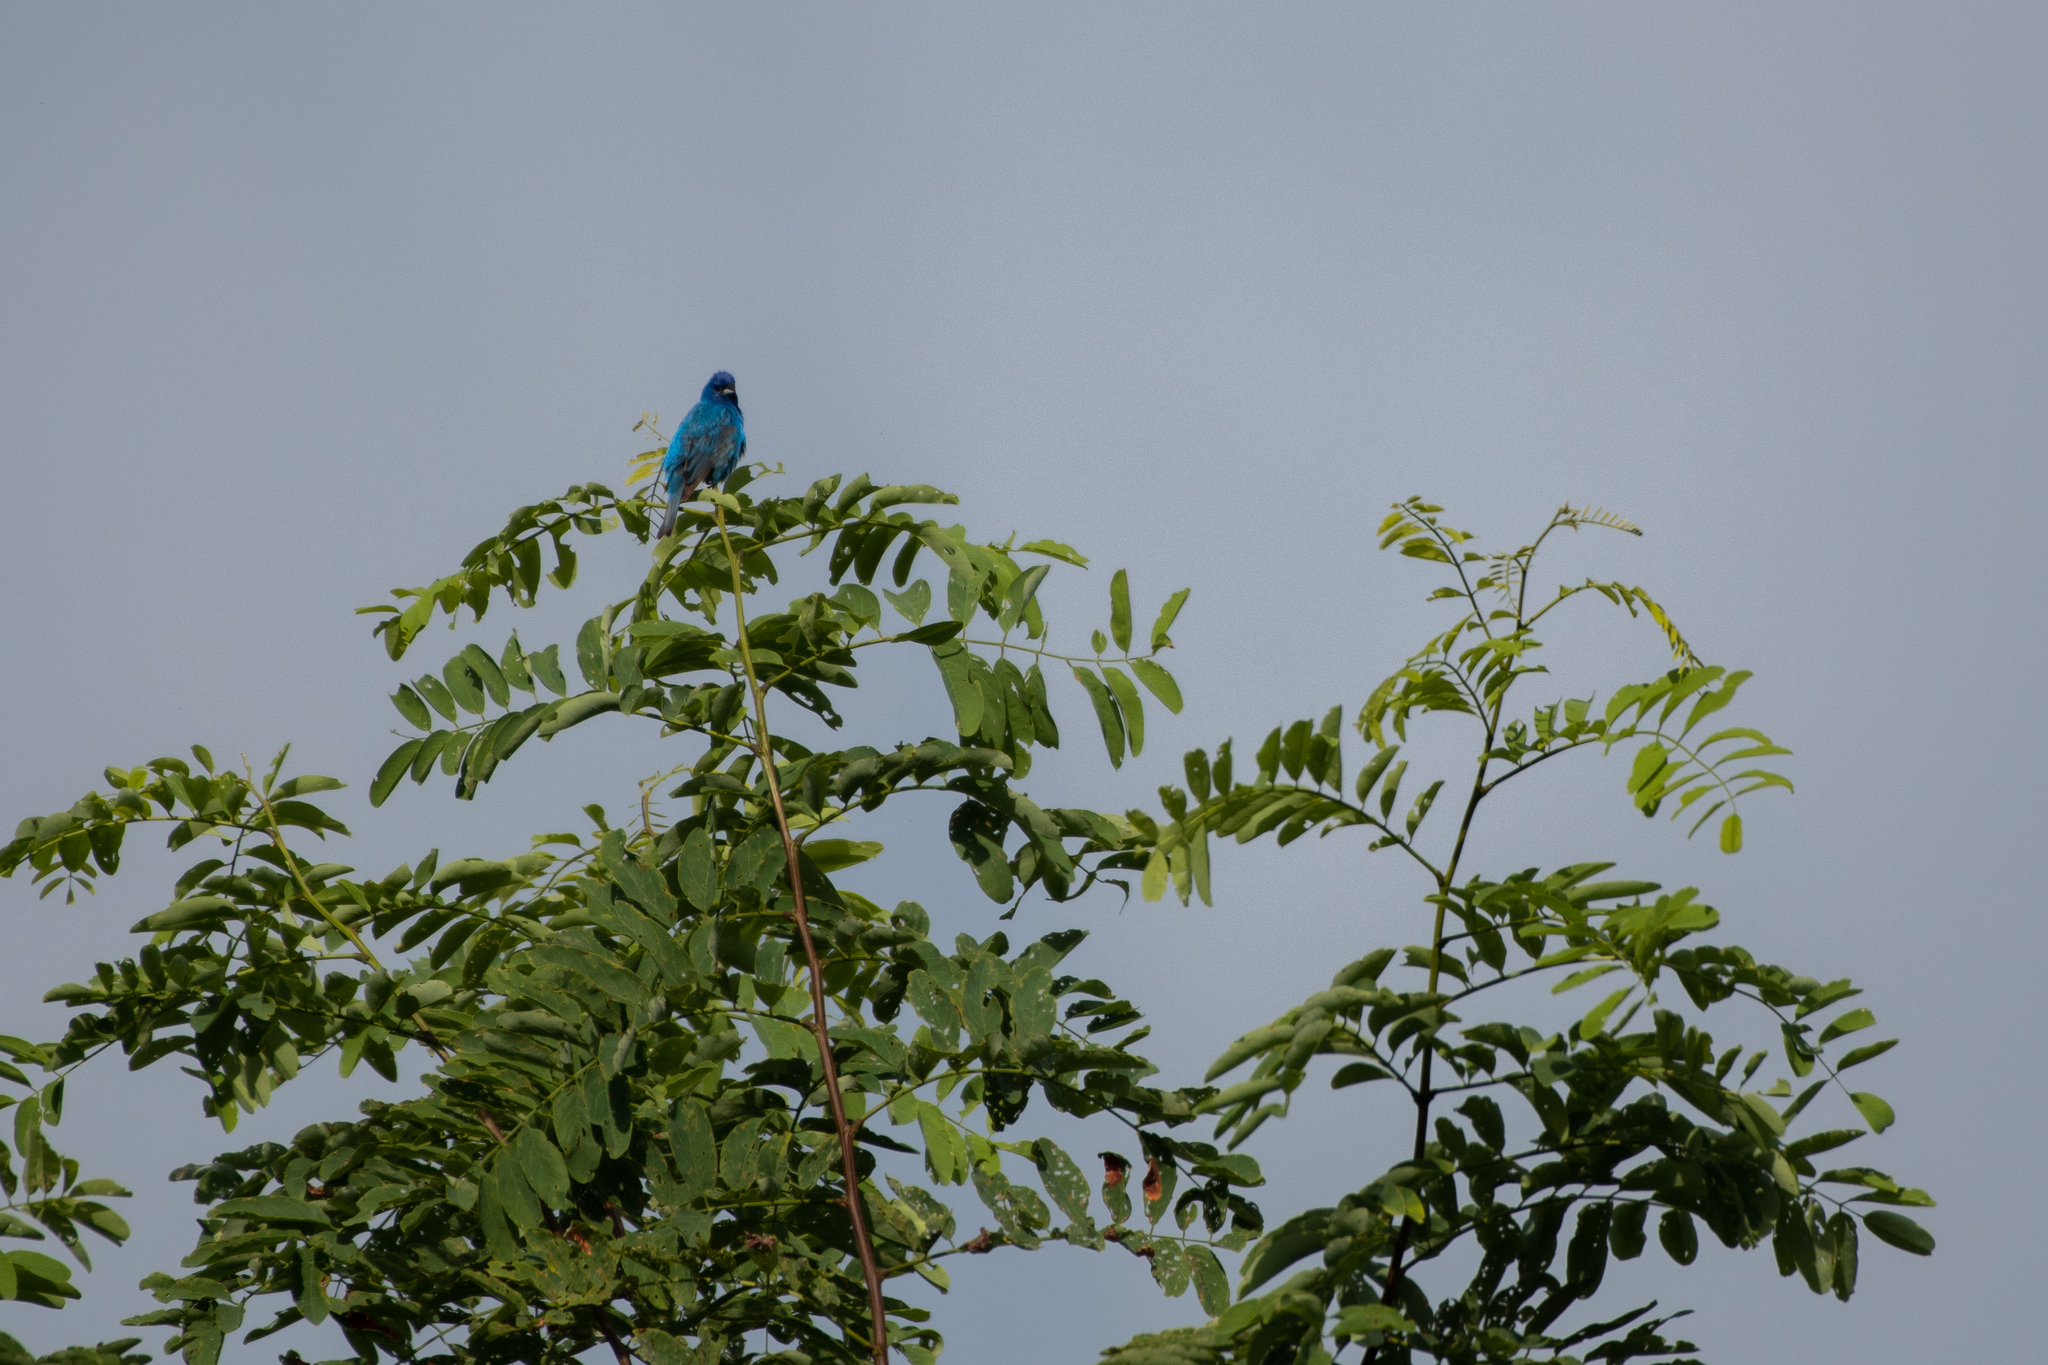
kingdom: Animalia
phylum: Chordata
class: Aves
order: Passeriformes
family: Cardinalidae
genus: Passerina
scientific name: Passerina cyanea
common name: Indigo bunting
